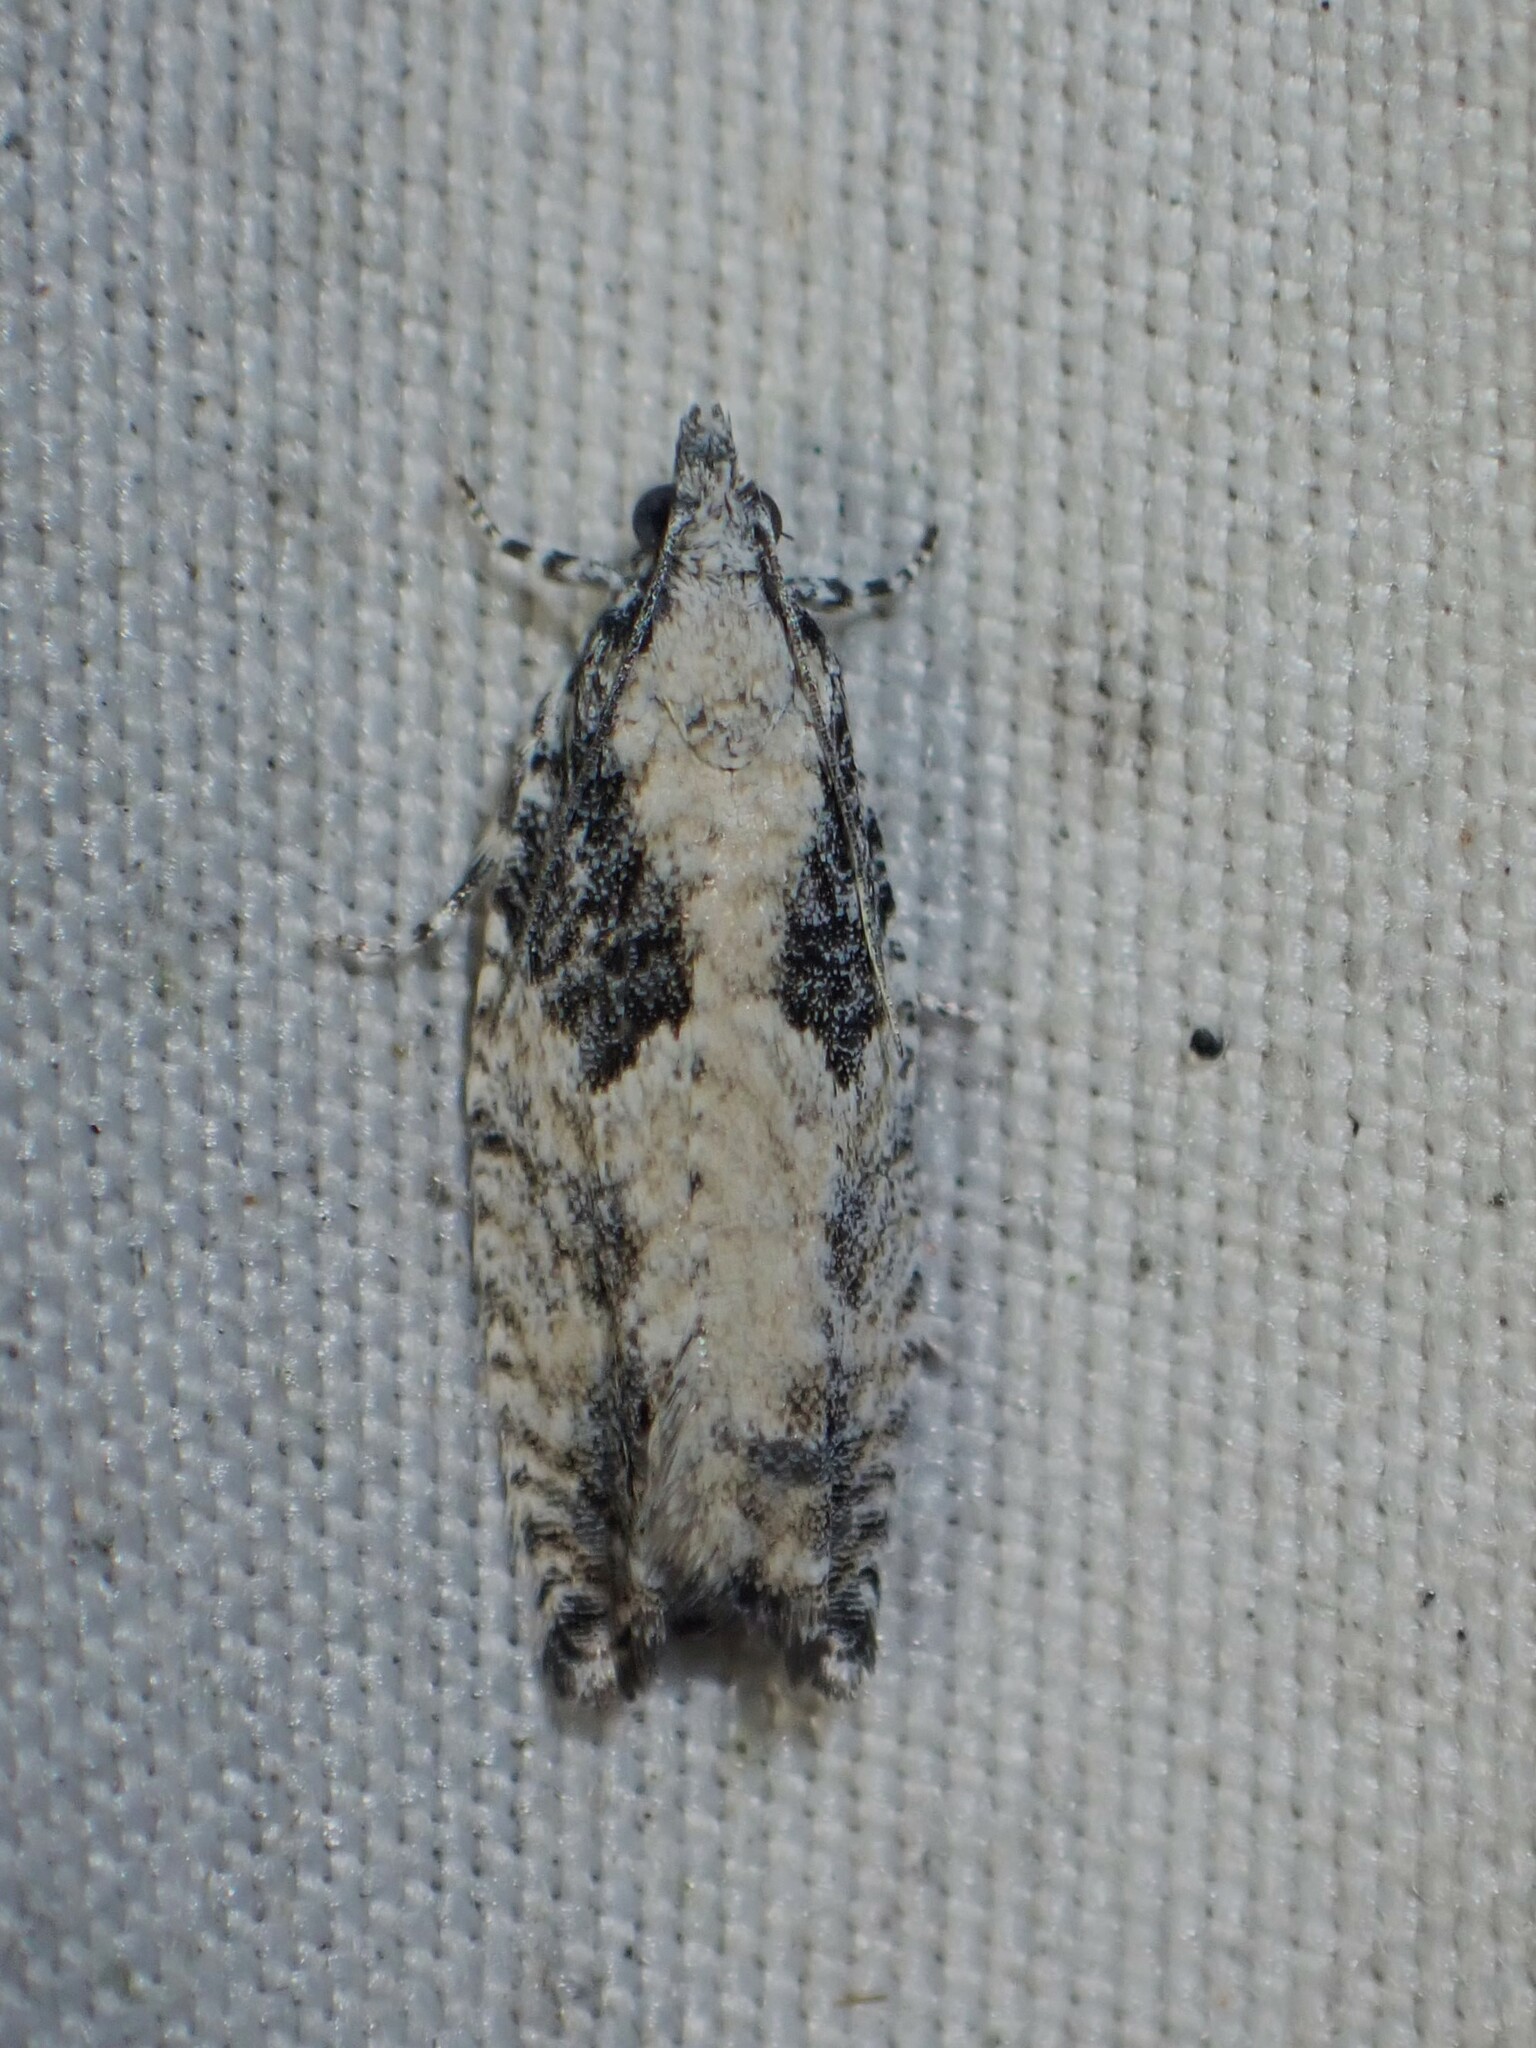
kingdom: Animalia
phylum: Arthropoda
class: Insecta
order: Lepidoptera
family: Tortricidae
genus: Epinotia
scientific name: Epinotia cinereana
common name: Grey aspen bell
